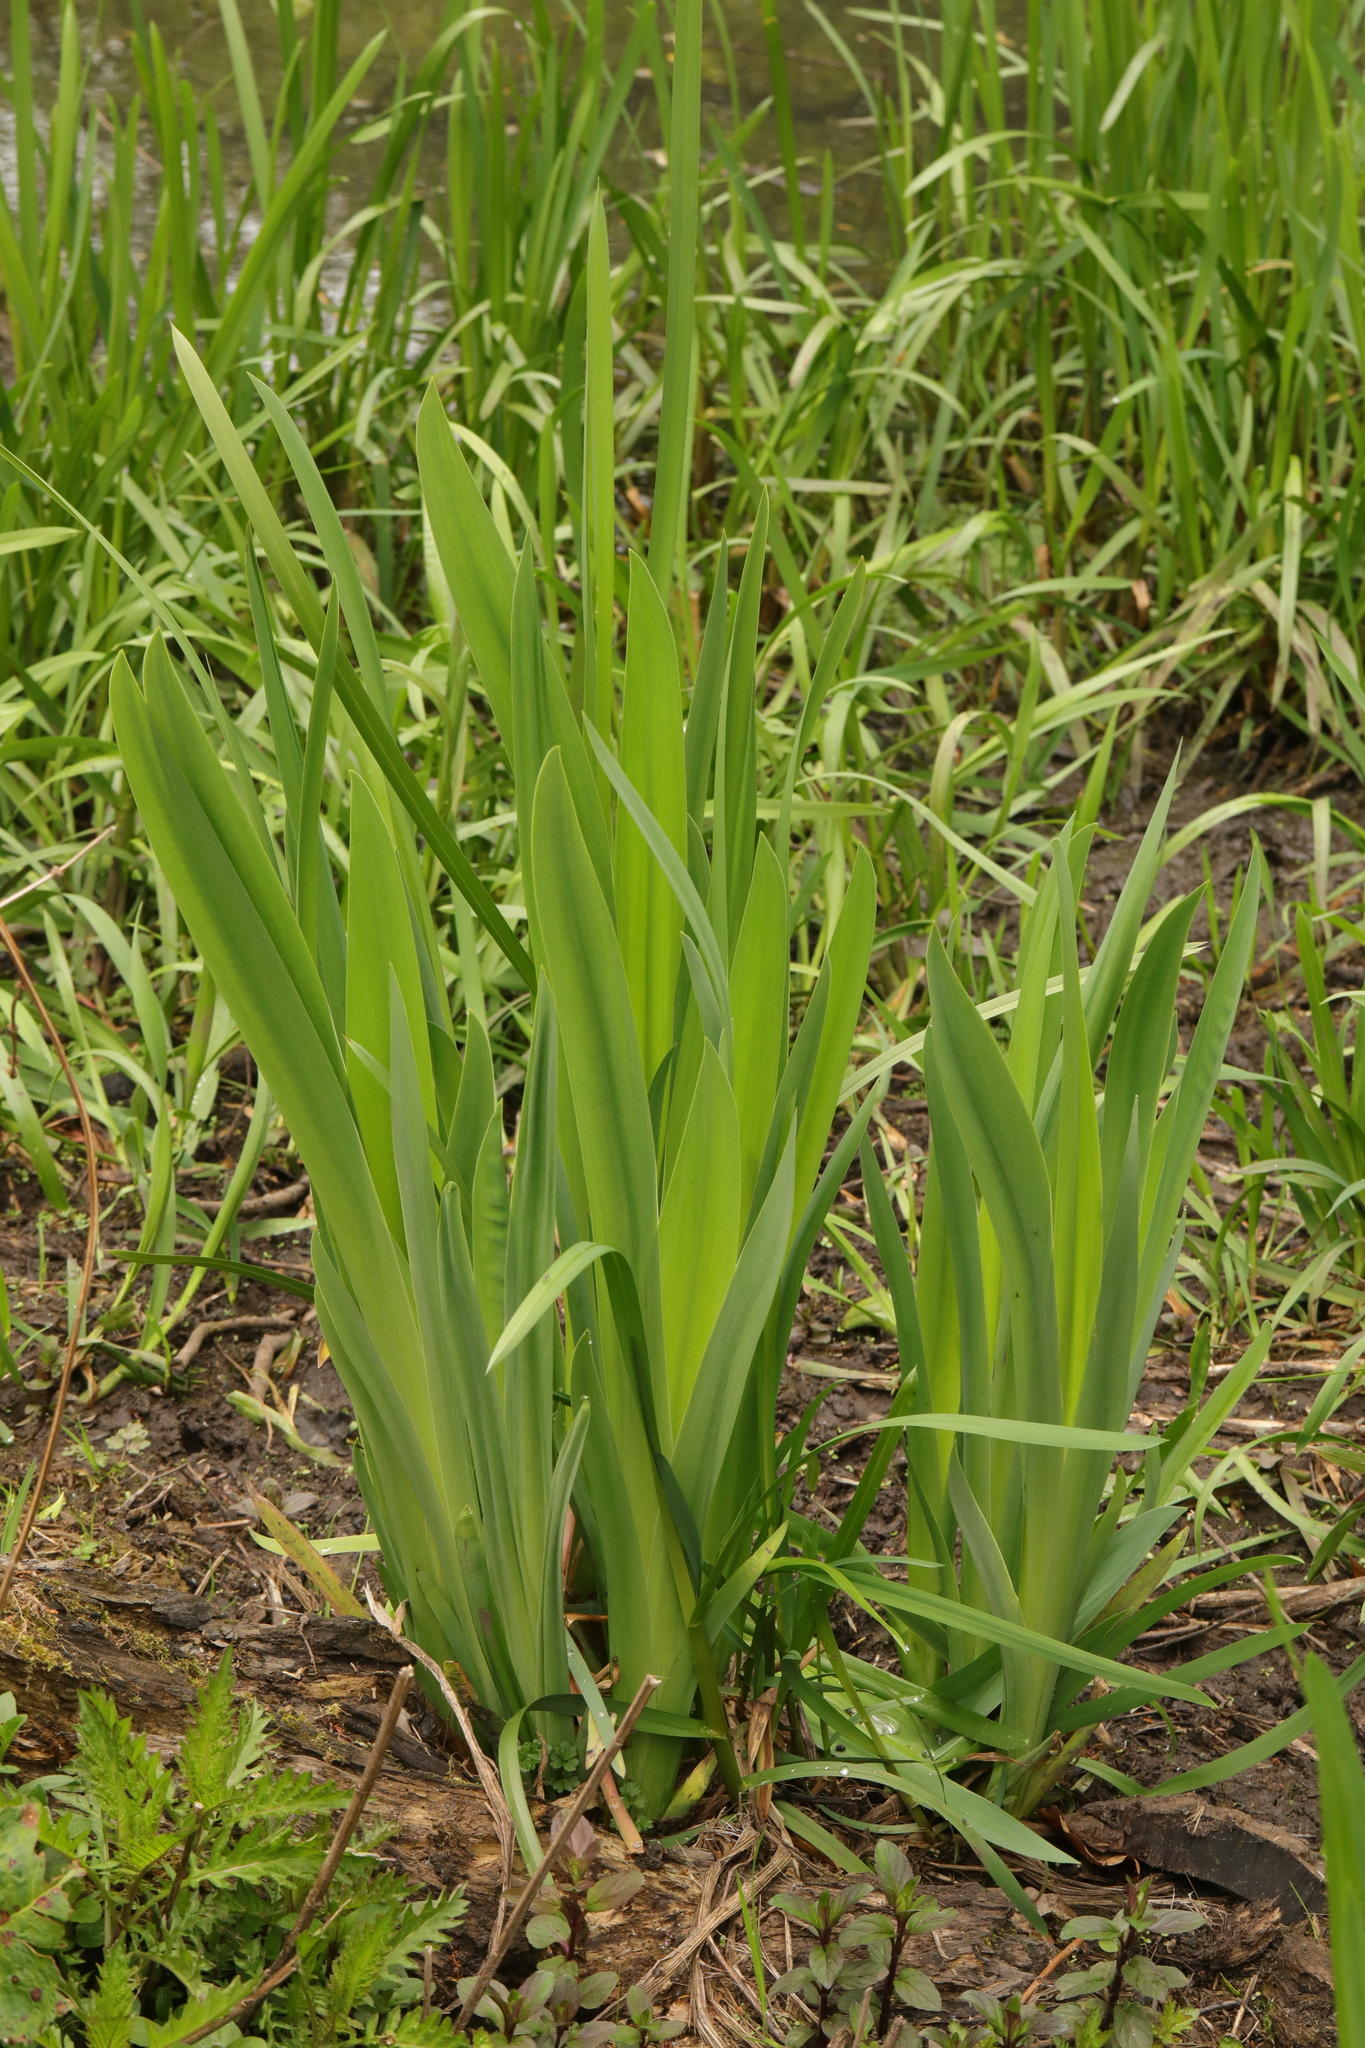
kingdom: Plantae
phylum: Tracheophyta
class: Liliopsida
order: Asparagales
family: Iridaceae
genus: Iris
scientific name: Iris pseudacorus
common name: Yellow flag
